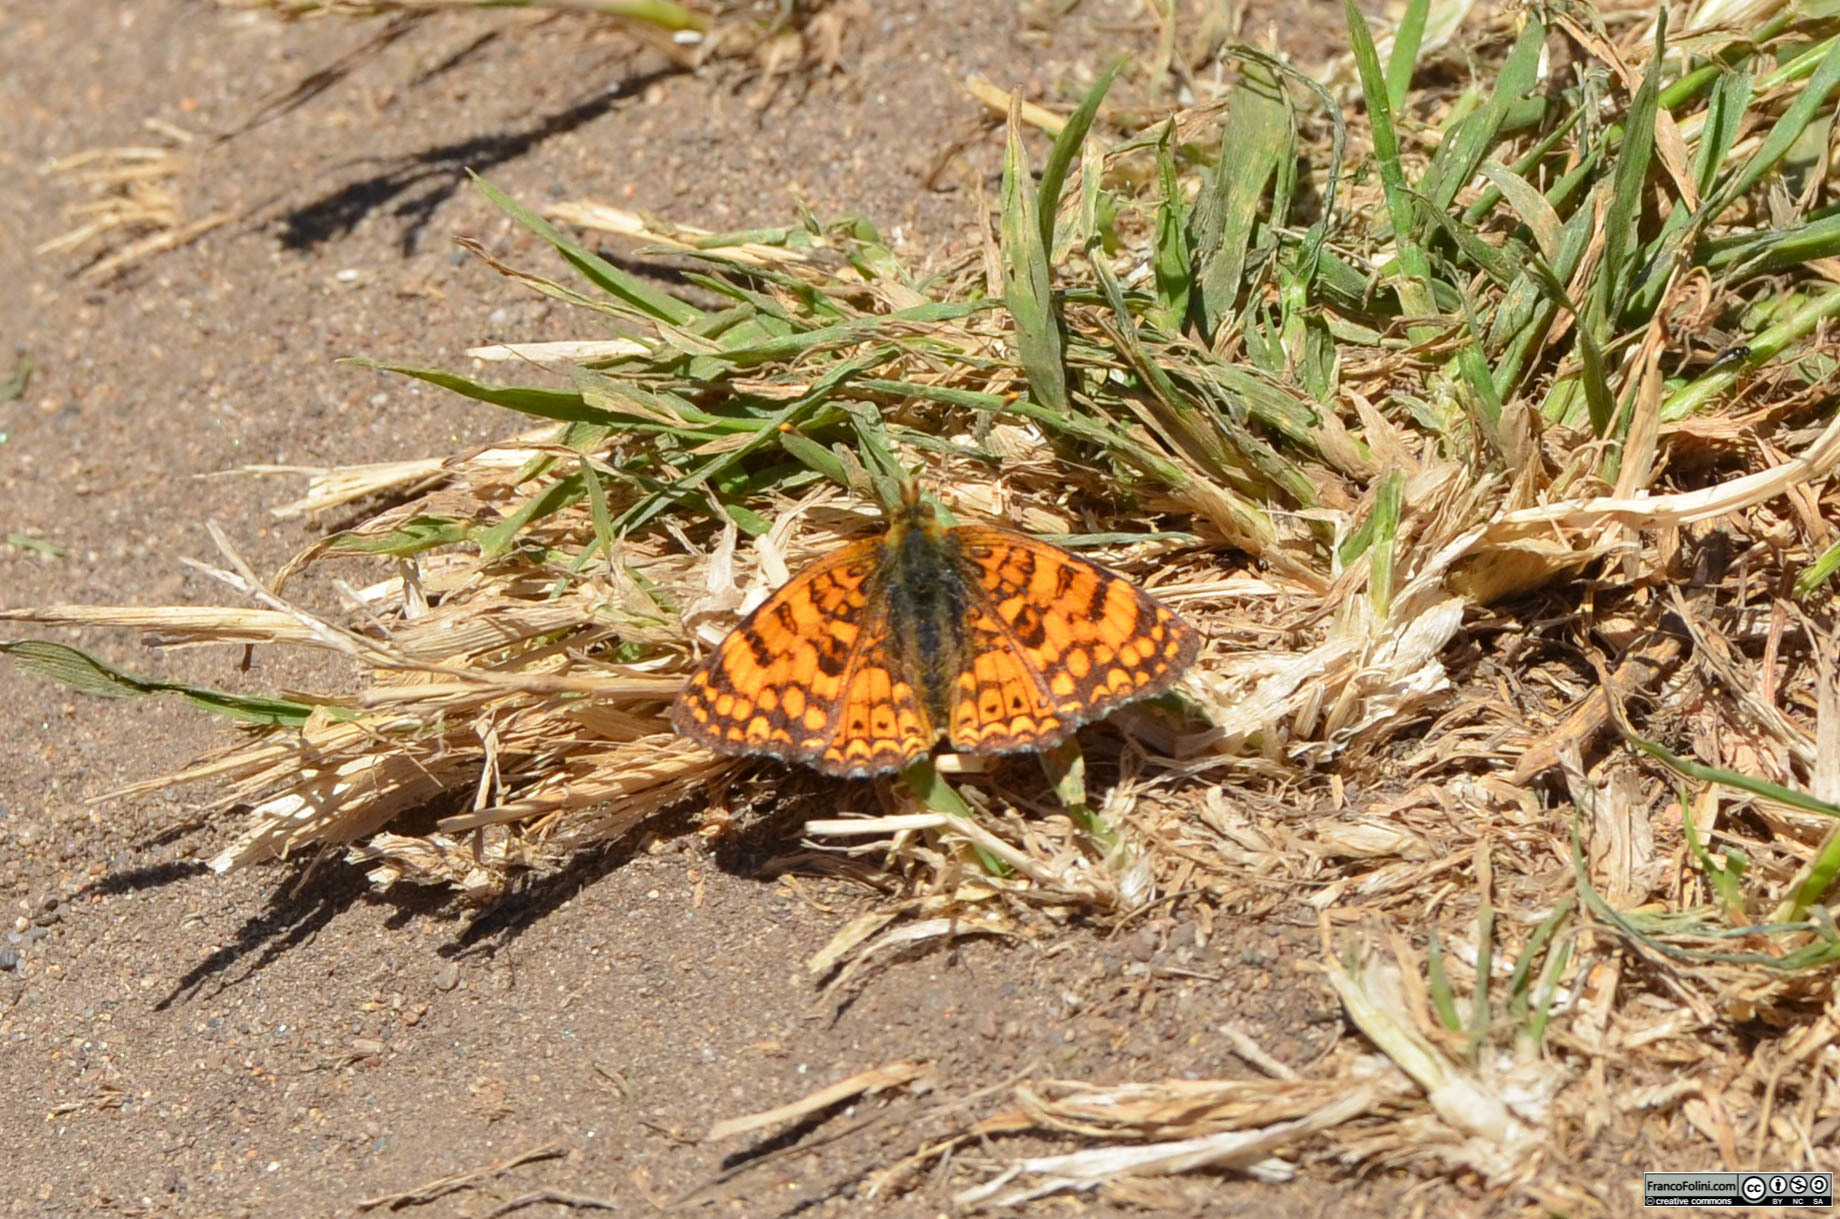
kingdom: Animalia
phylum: Arthropoda
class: Insecta
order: Lepidoptera
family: Nymphalidae
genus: Eresia
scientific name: Eresia aveyrona
